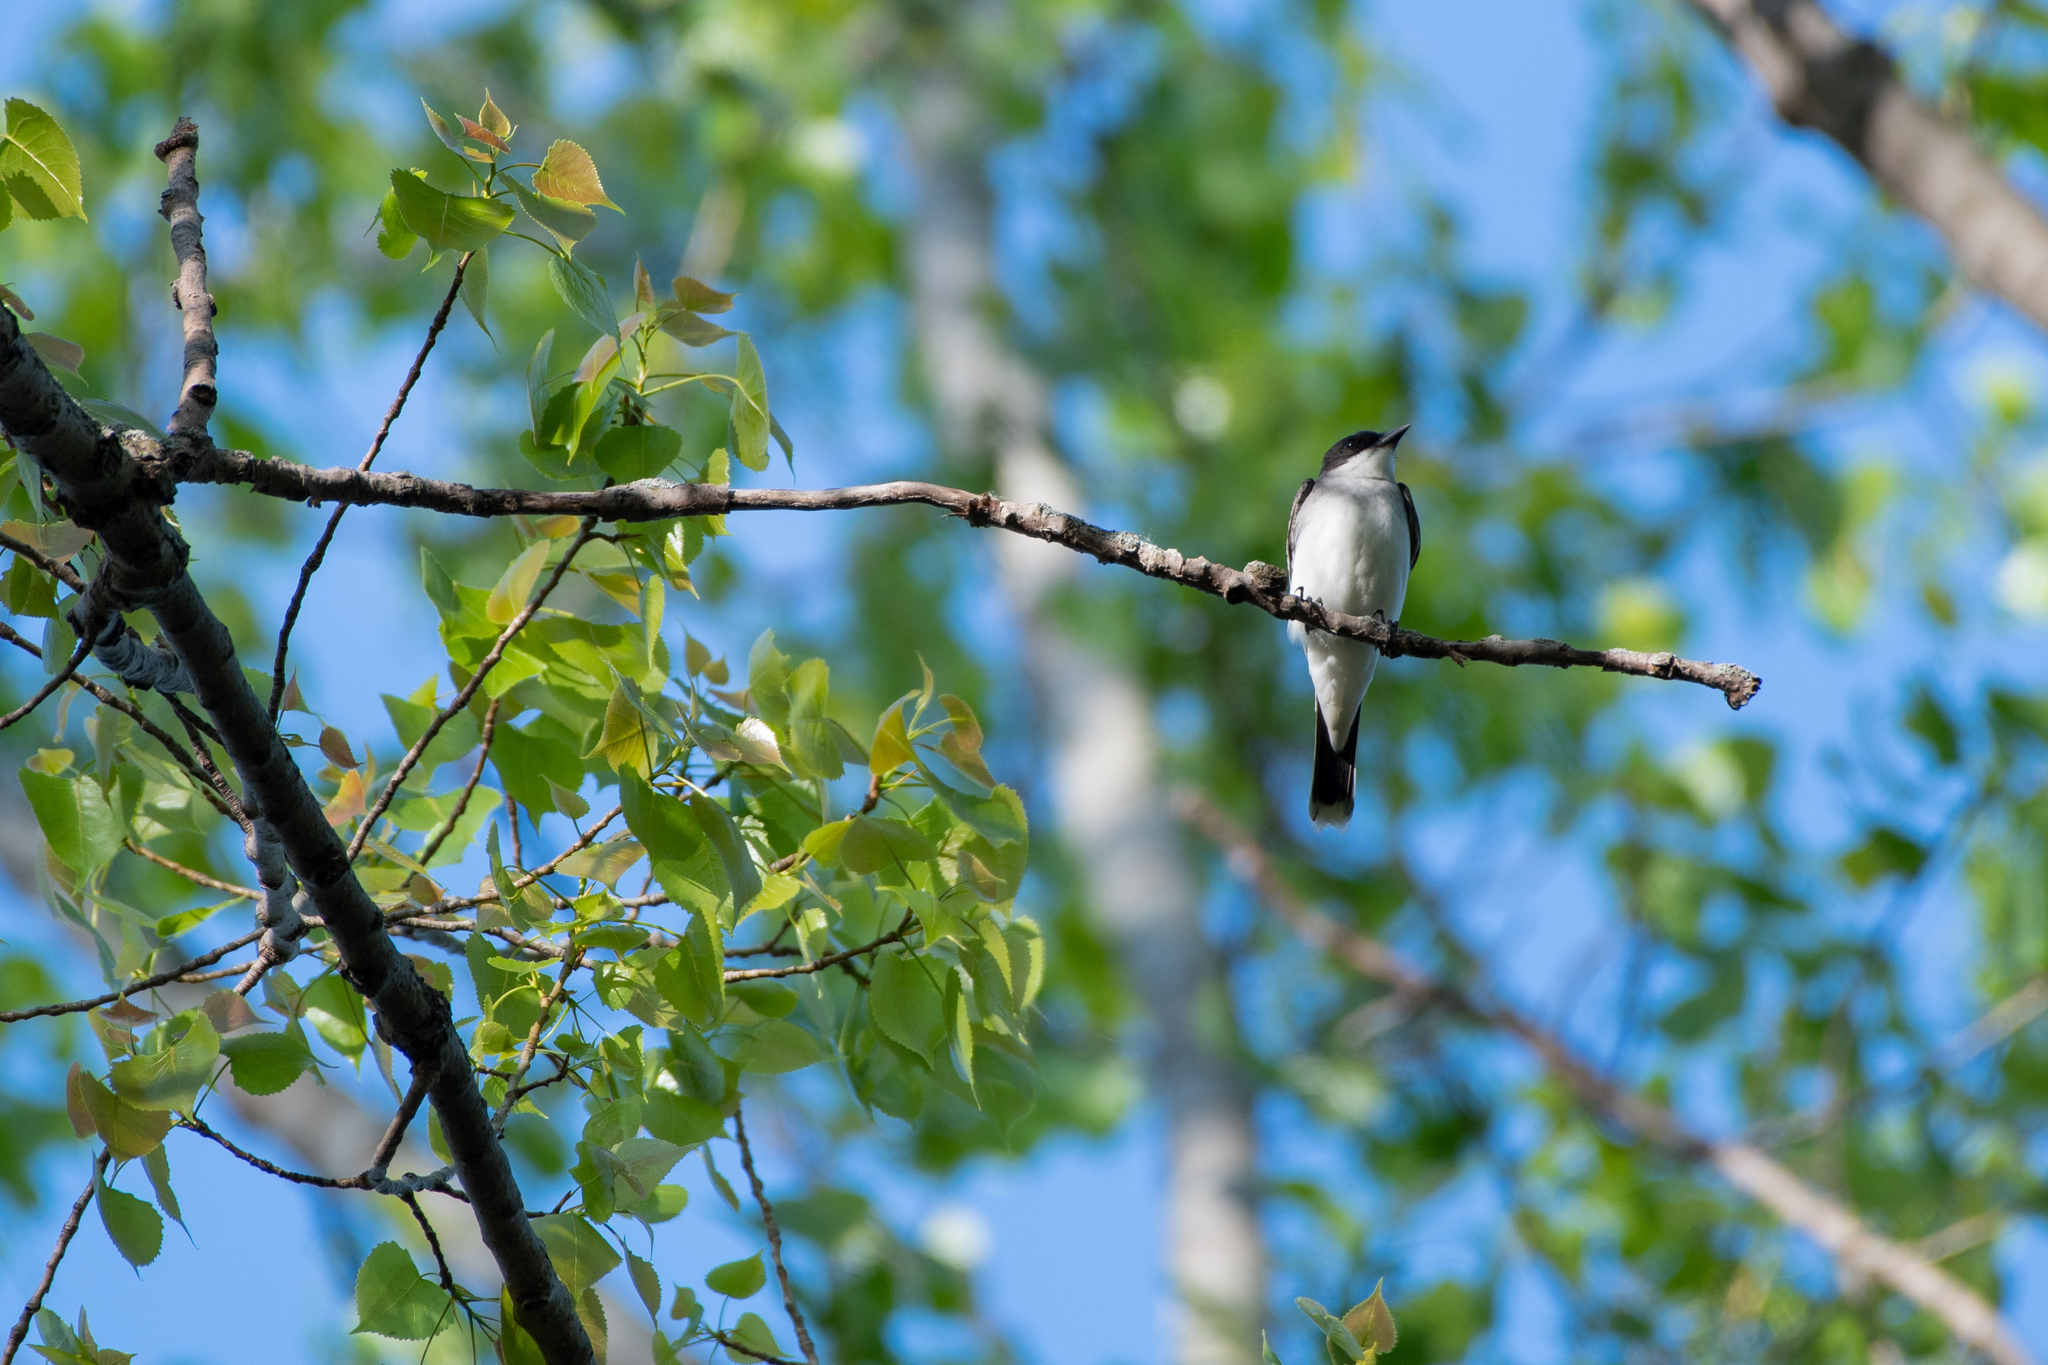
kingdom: Animalia
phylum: Chordata
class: Aves
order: Passeriformes
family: Tyrannidae
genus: Tyrannus
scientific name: Tyrannus tyrannus
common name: Eastern kingbird
